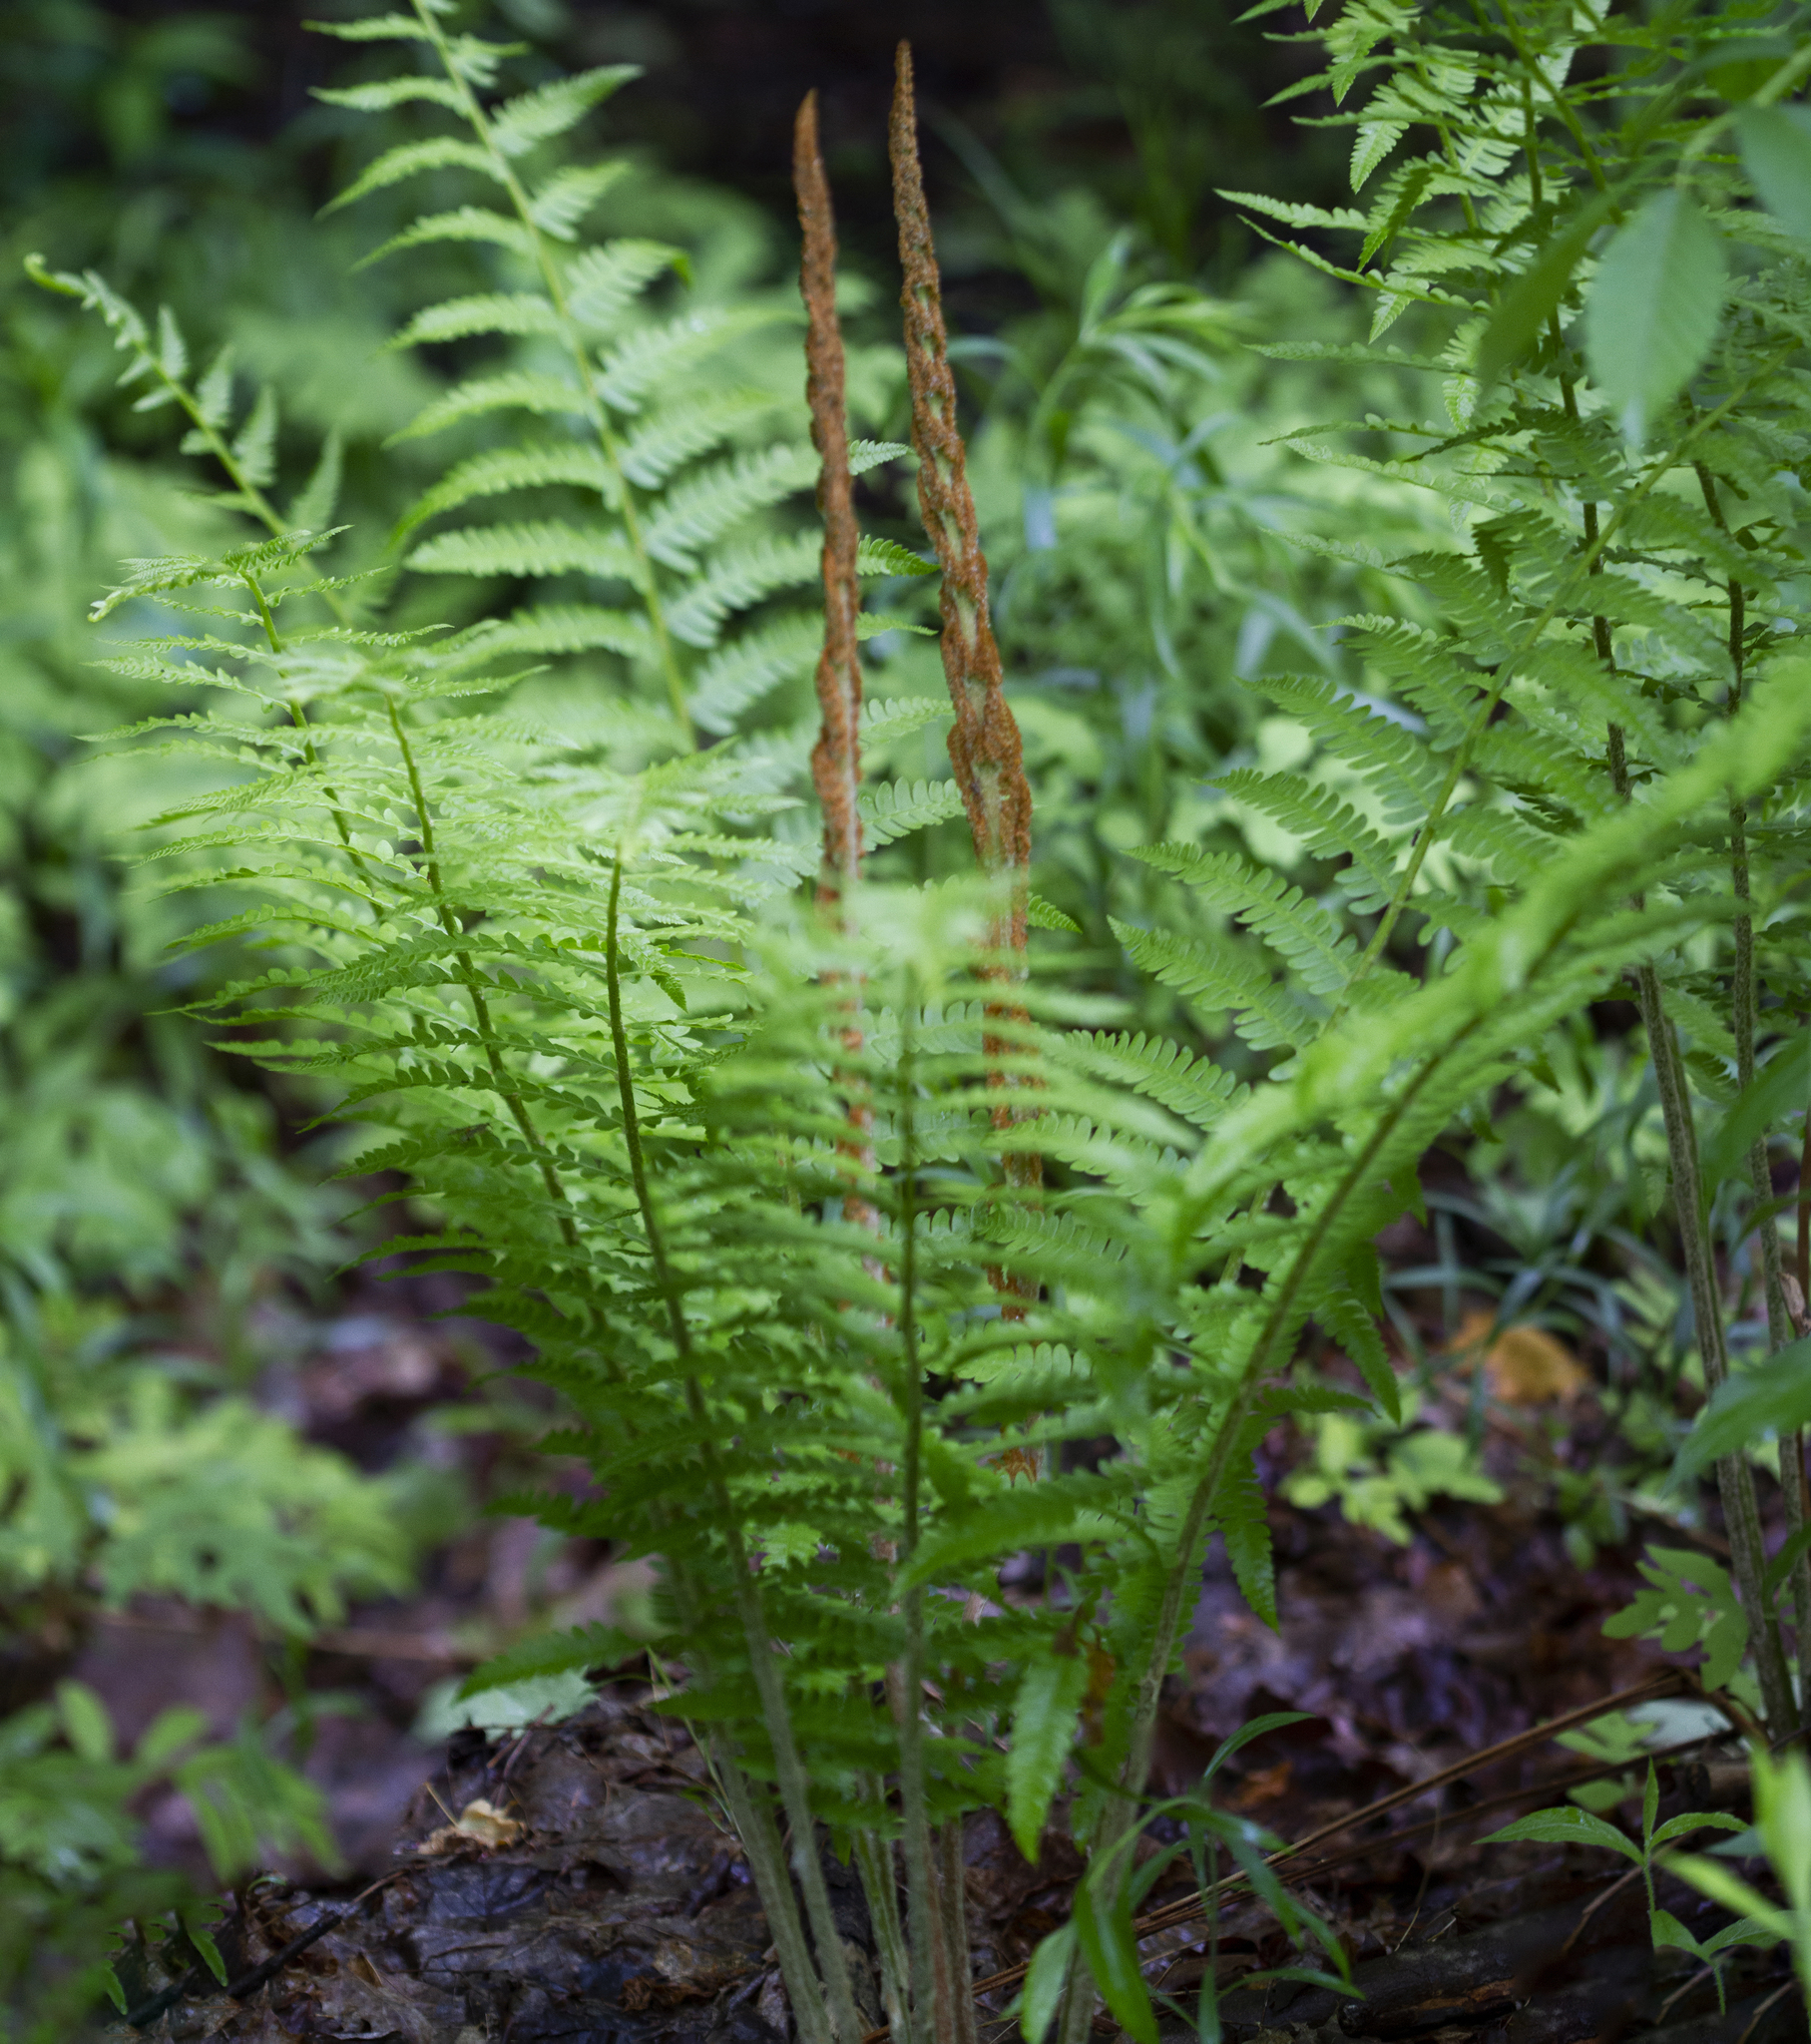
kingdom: Plantae
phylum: Tracheophyta
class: Polypodiopsida
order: Osmundales
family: Osmundaceae
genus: Osmundastrum
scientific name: Osmundastrum cinnamomeum
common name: Cinnamon fern
